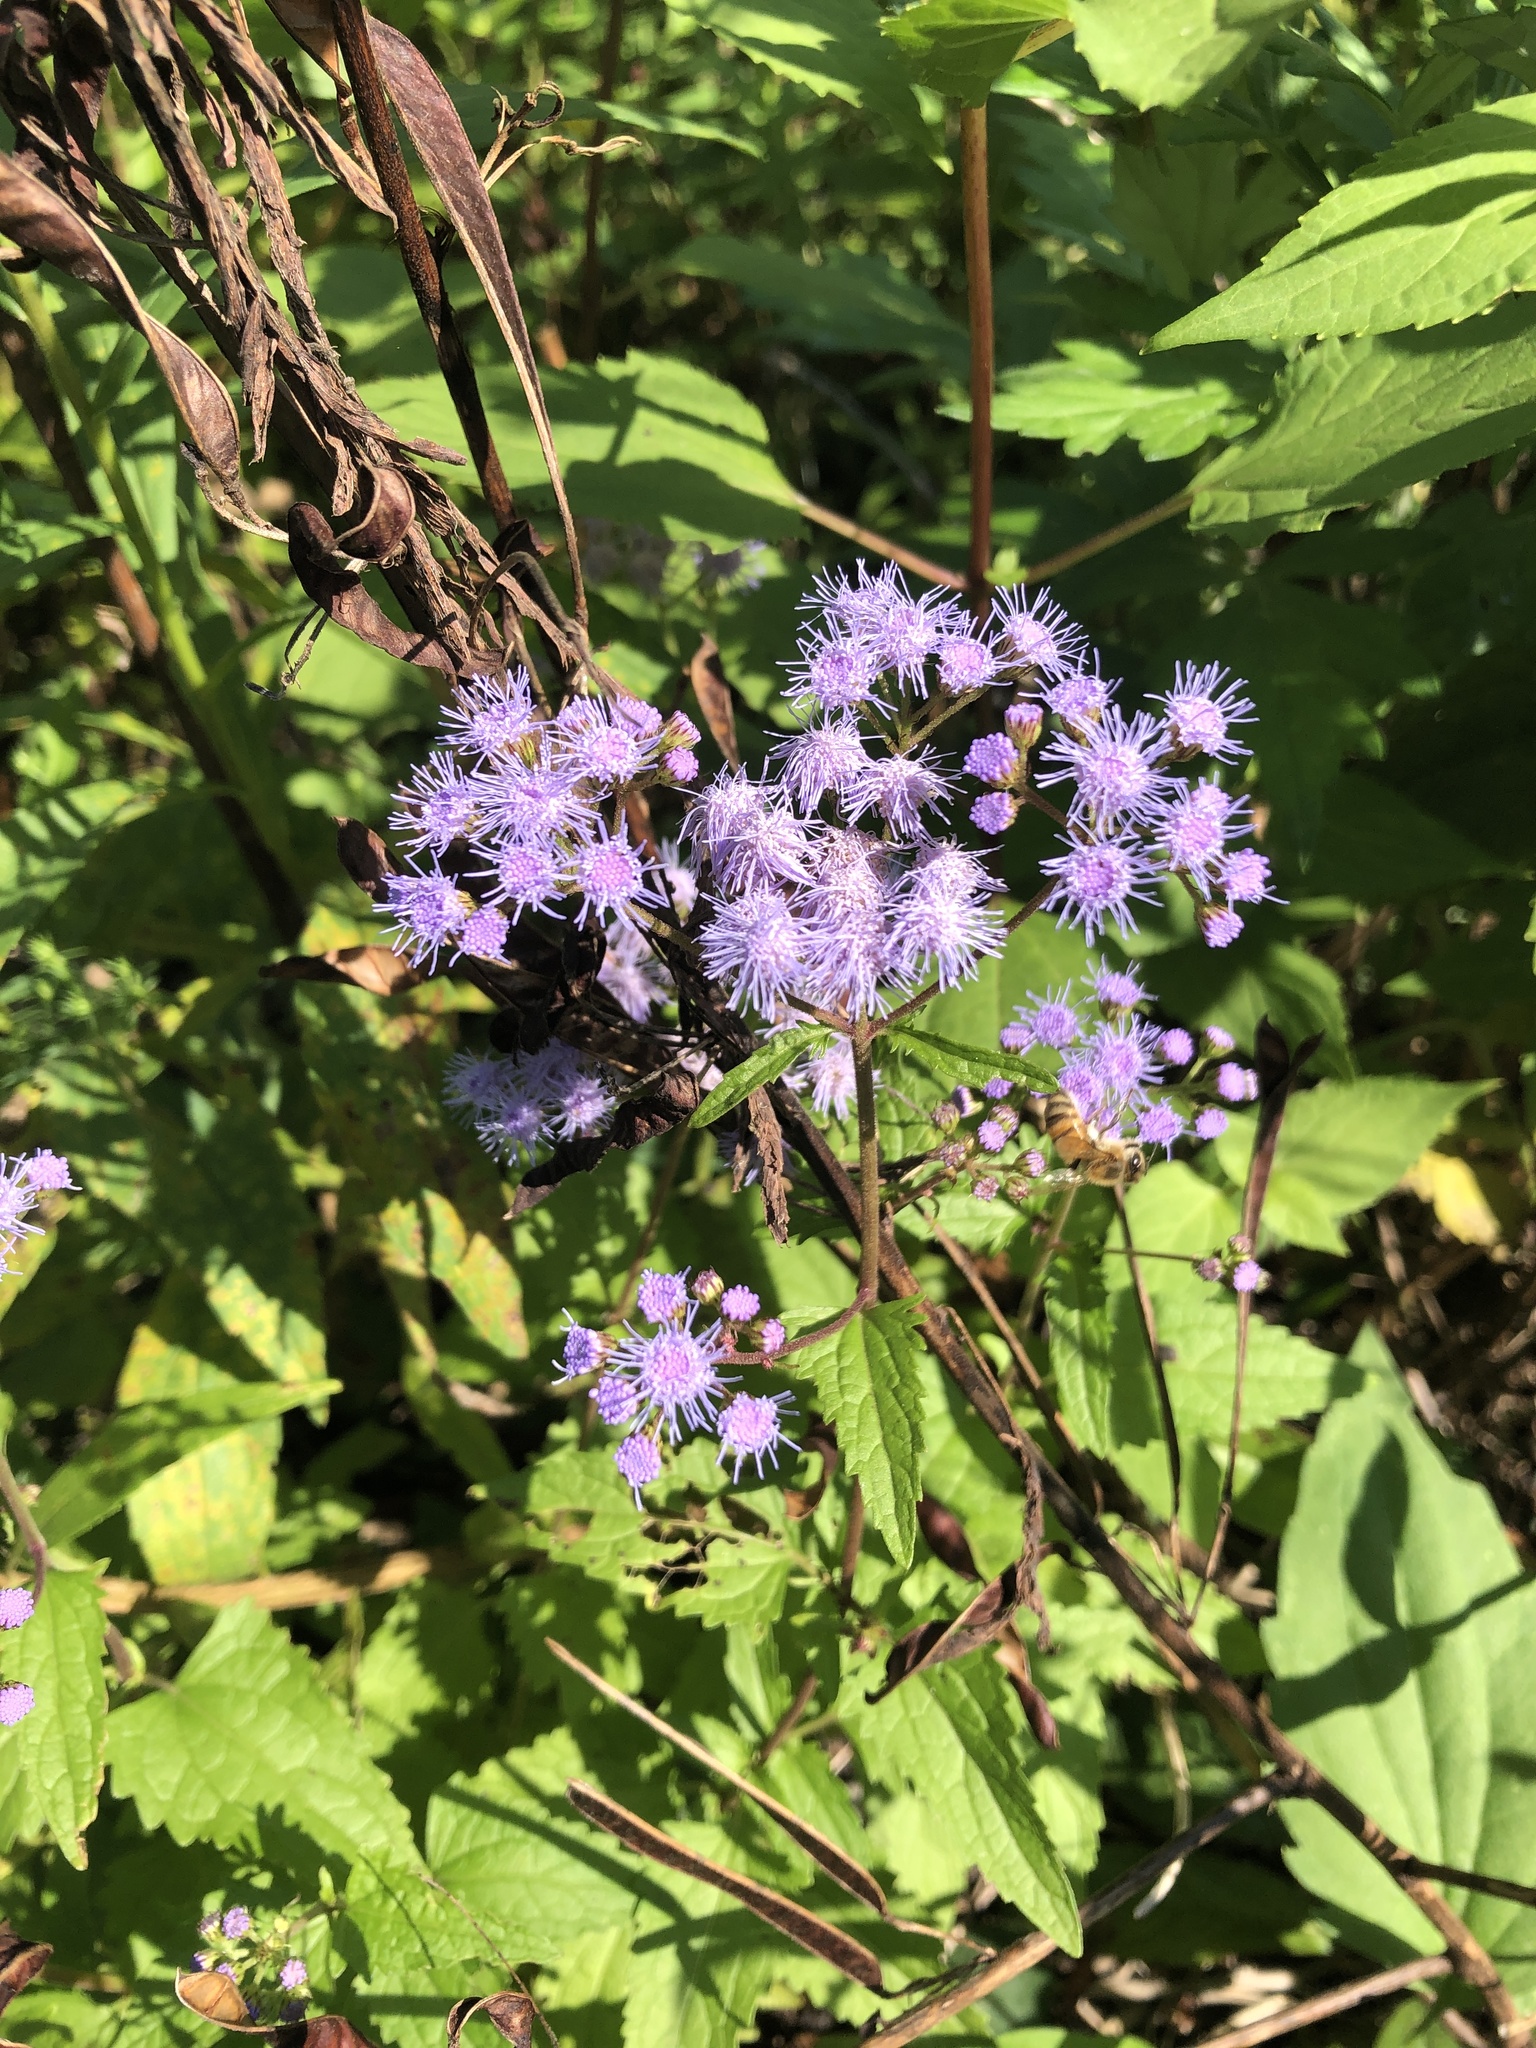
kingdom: Plantae
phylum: Tracheophyta
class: Magnoliopsida
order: Asterales
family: Asteraceae
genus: Conoclinium
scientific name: Conoclinium coelestinum
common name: Blue mistflower
